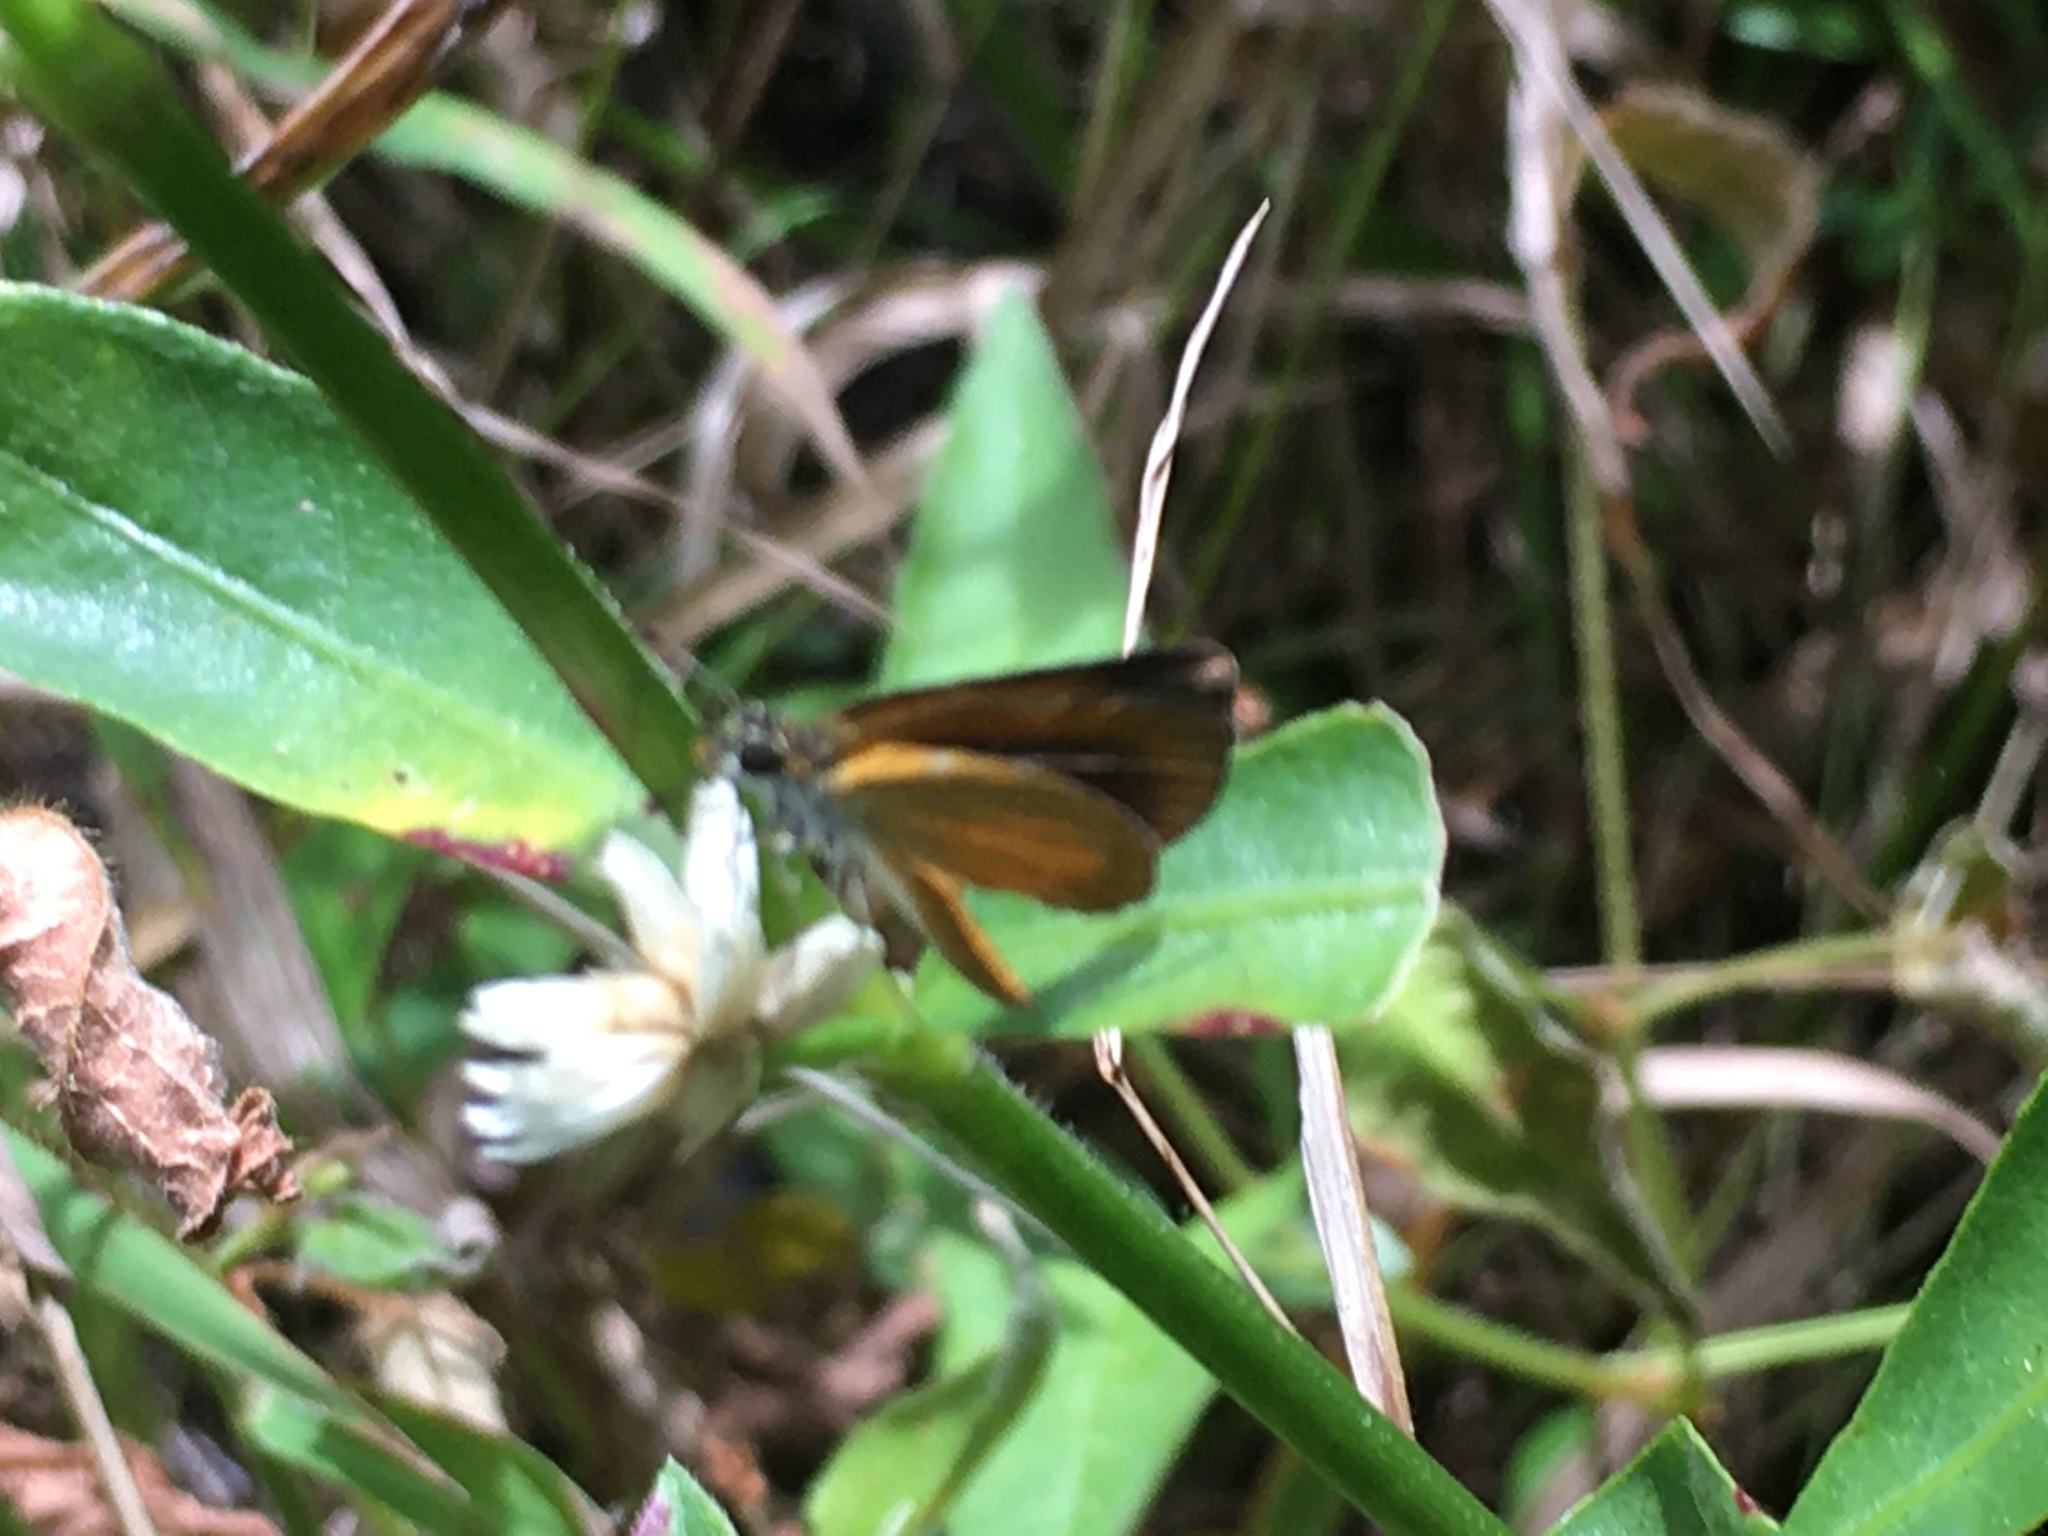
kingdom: Animalia
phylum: Arthropoda
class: Insecta
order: Lepidoptera
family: Hesperiidae
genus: Ancyloxypha
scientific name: Ancyloxypha numitor
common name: Least skipper
